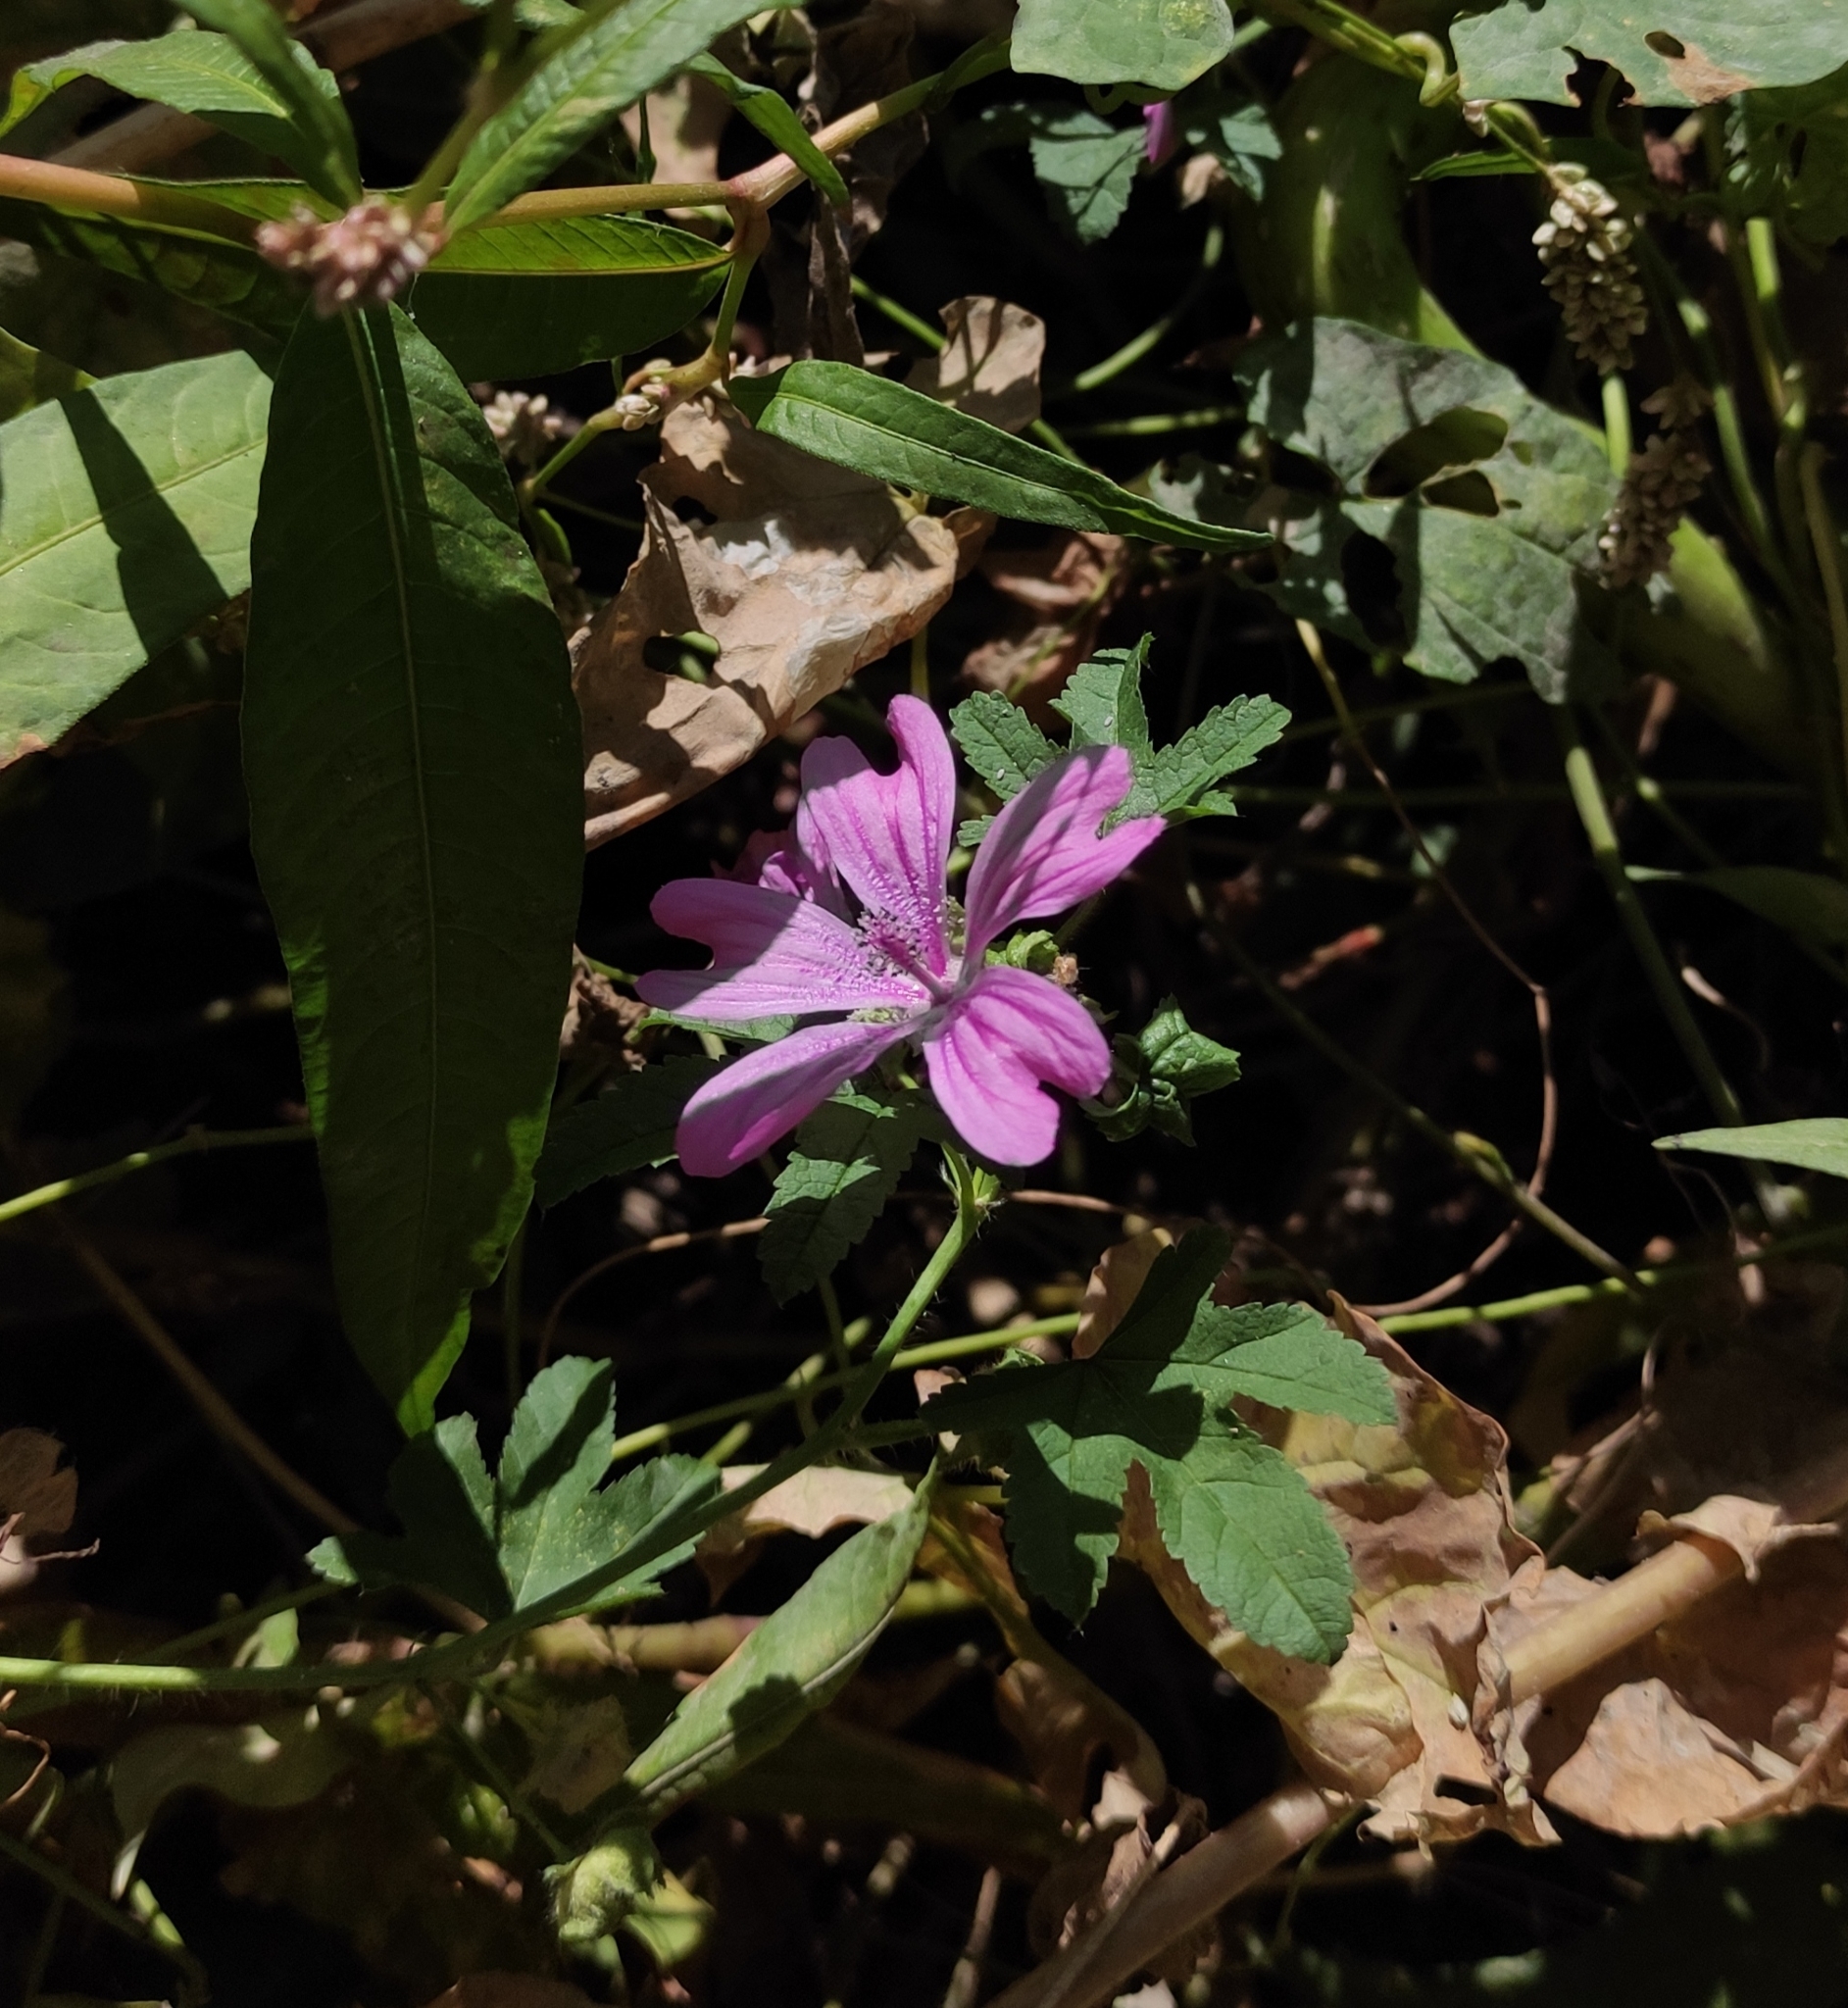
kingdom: Plantae
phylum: Tracheophyta
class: Magnoliopsida
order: Malvales
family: Malvaceae
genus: Malva
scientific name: Malva sylvestris
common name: Common mallow
